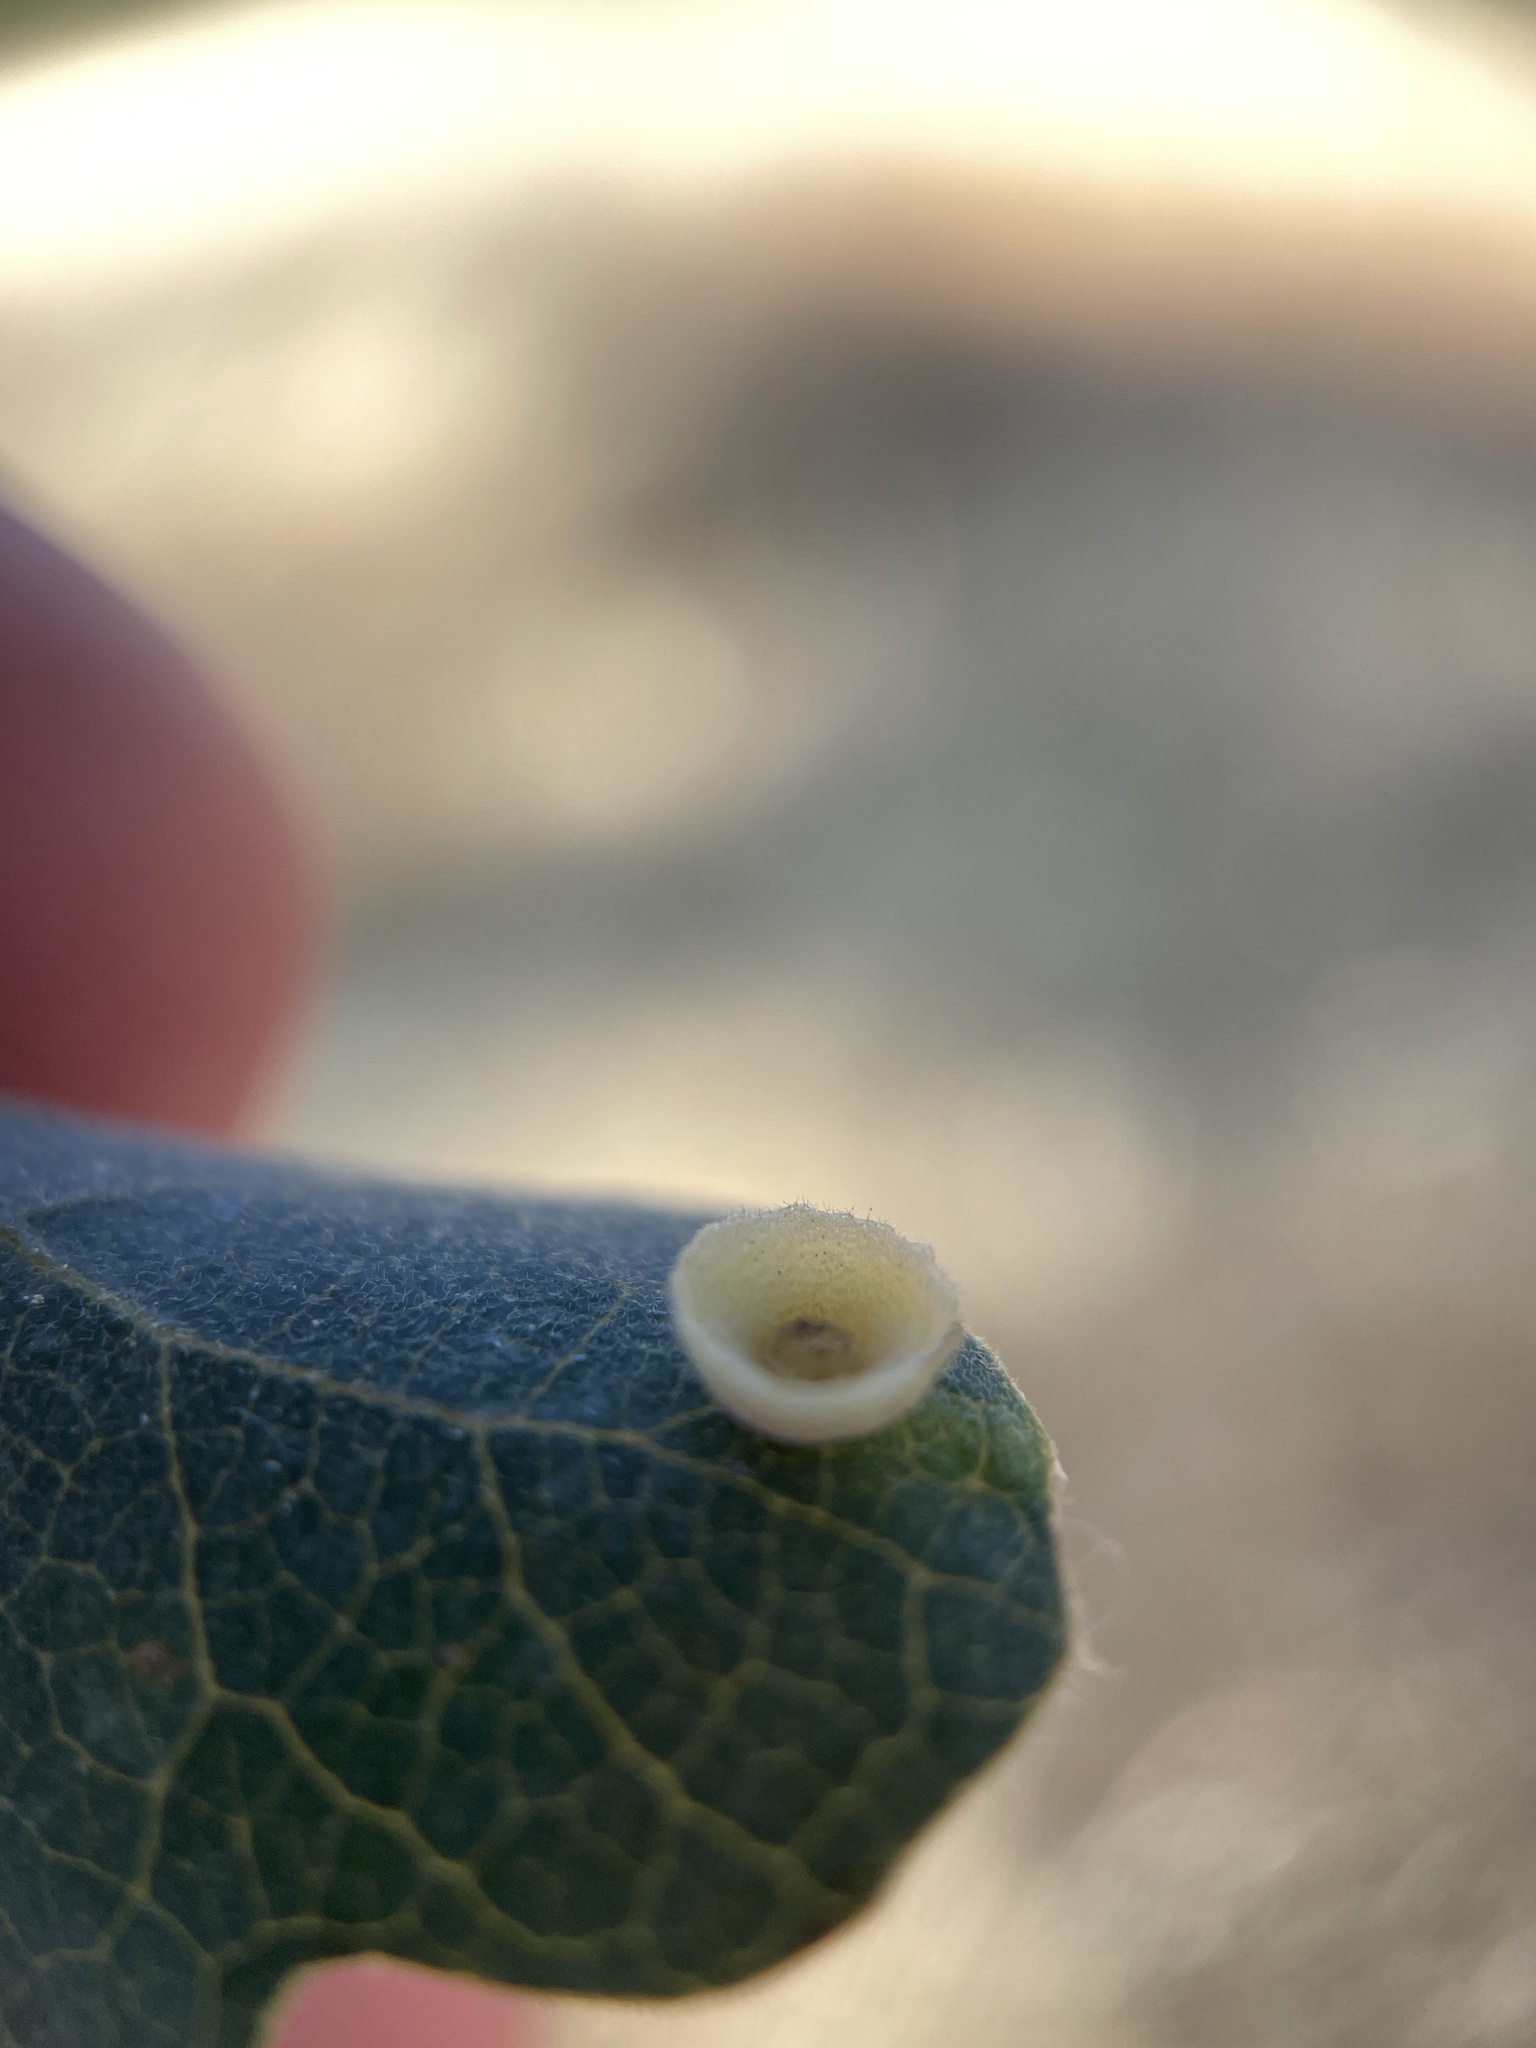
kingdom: Animalia
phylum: Arthropoda
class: Insecta
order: Hymenoptera
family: Cynipidae
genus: Andricus
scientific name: Andricus
